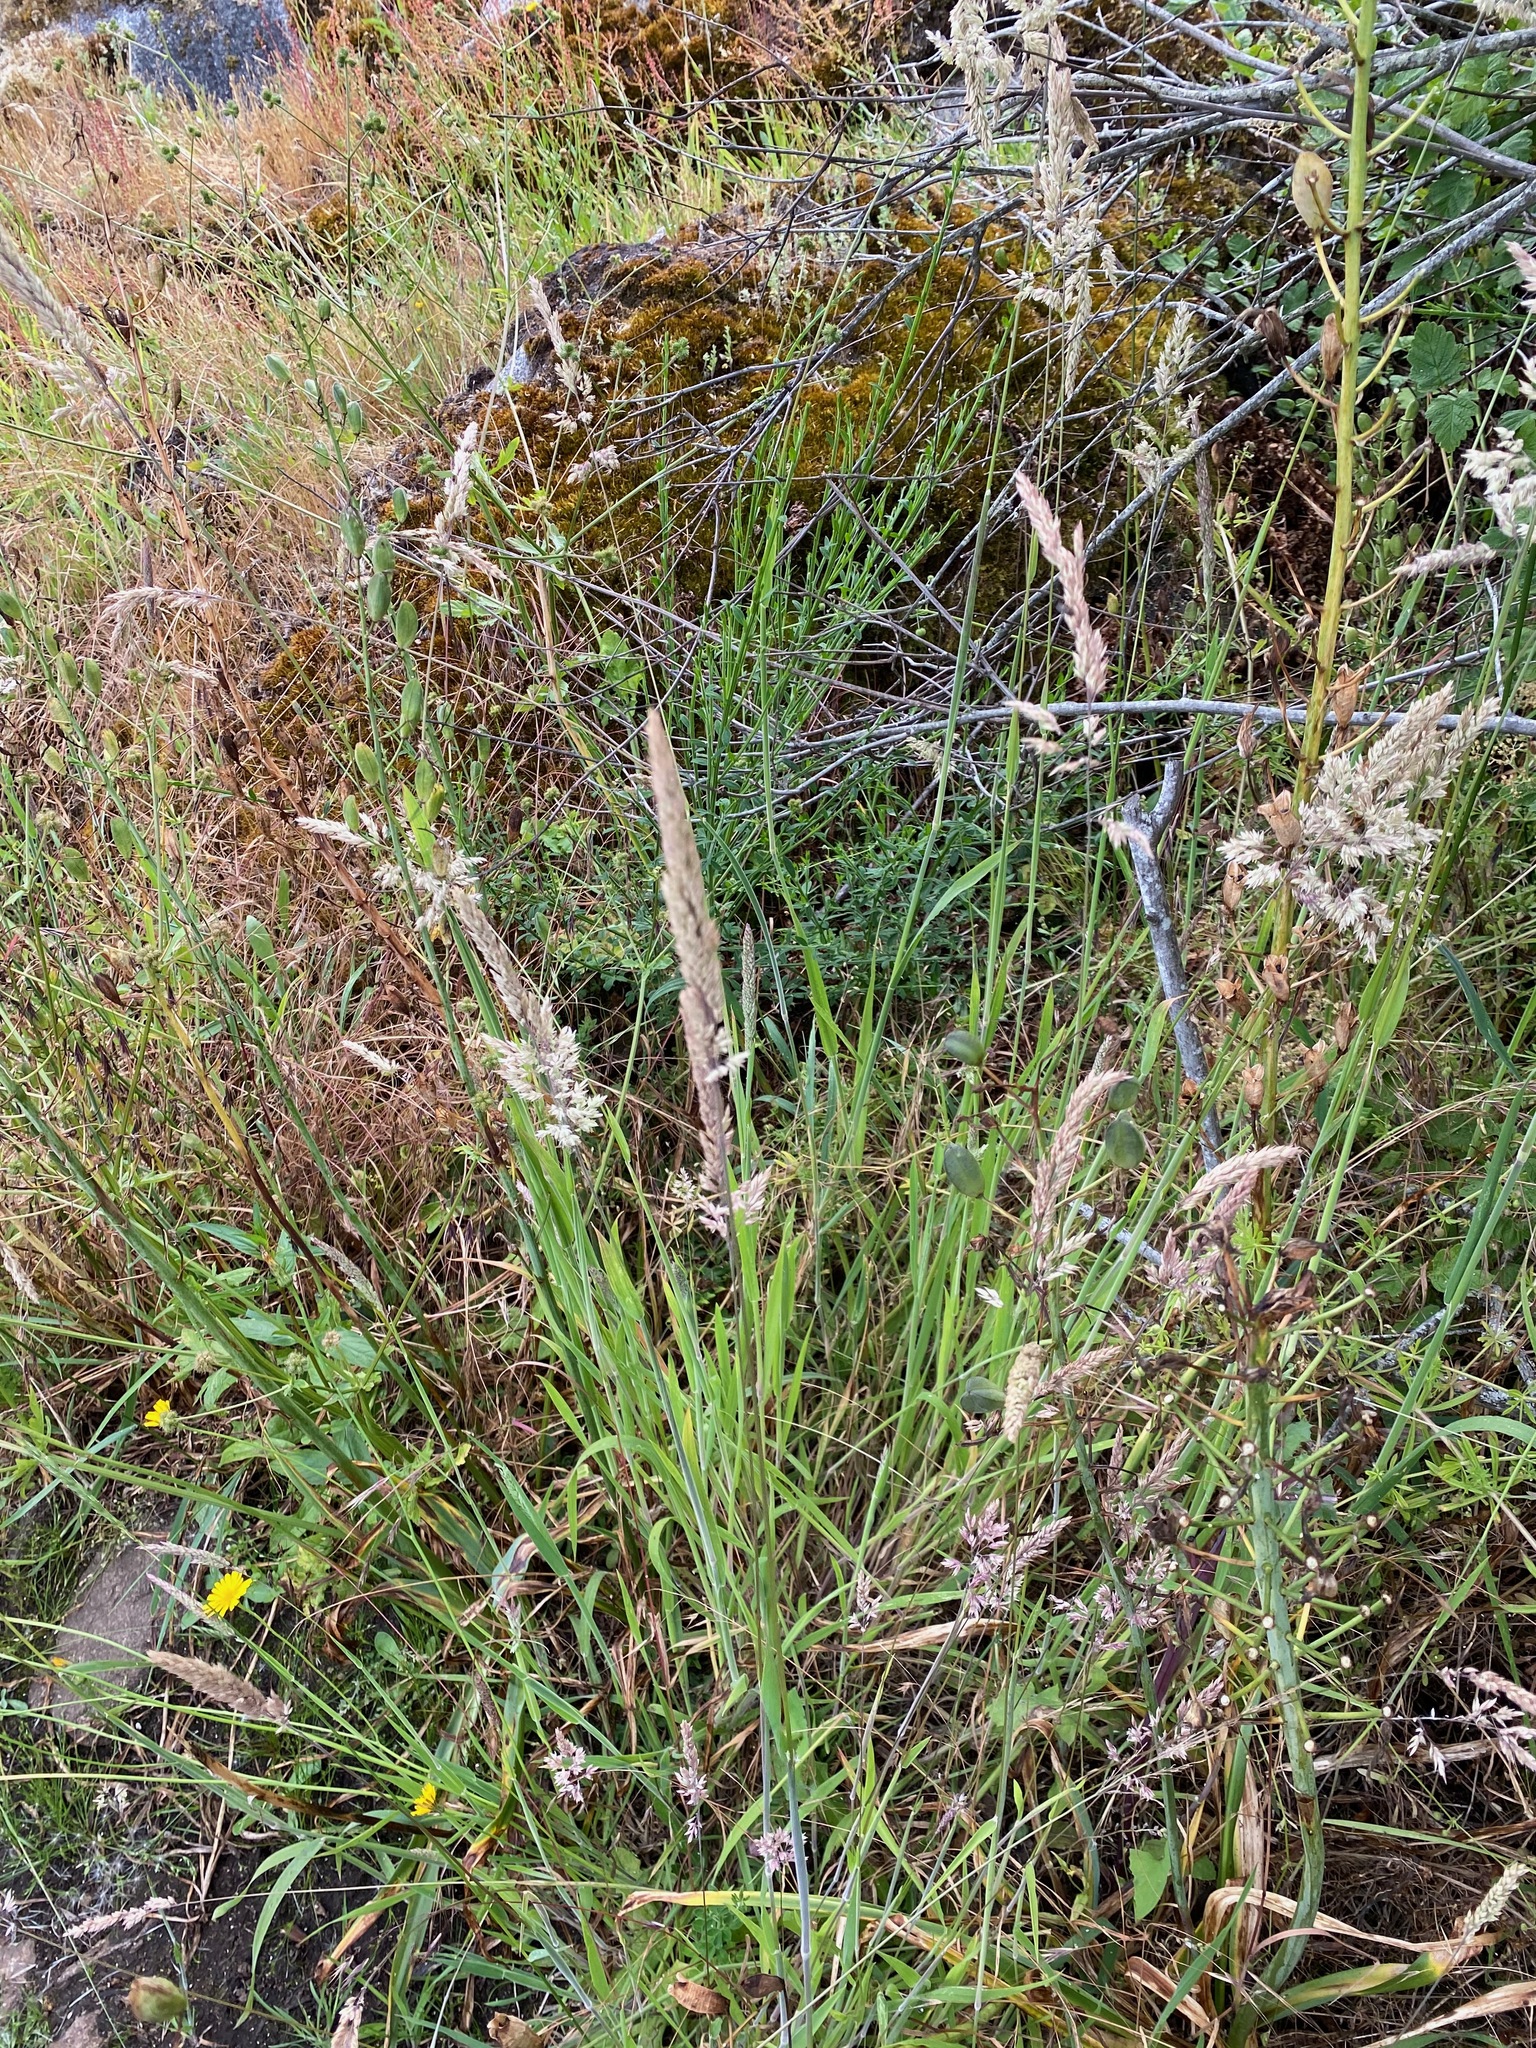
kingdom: Plantae
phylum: Tracheophyta
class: Liliopsida
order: Poales
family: Poaceae
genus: Holcus
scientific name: Holcus lanatus
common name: Yorkshire-fog
